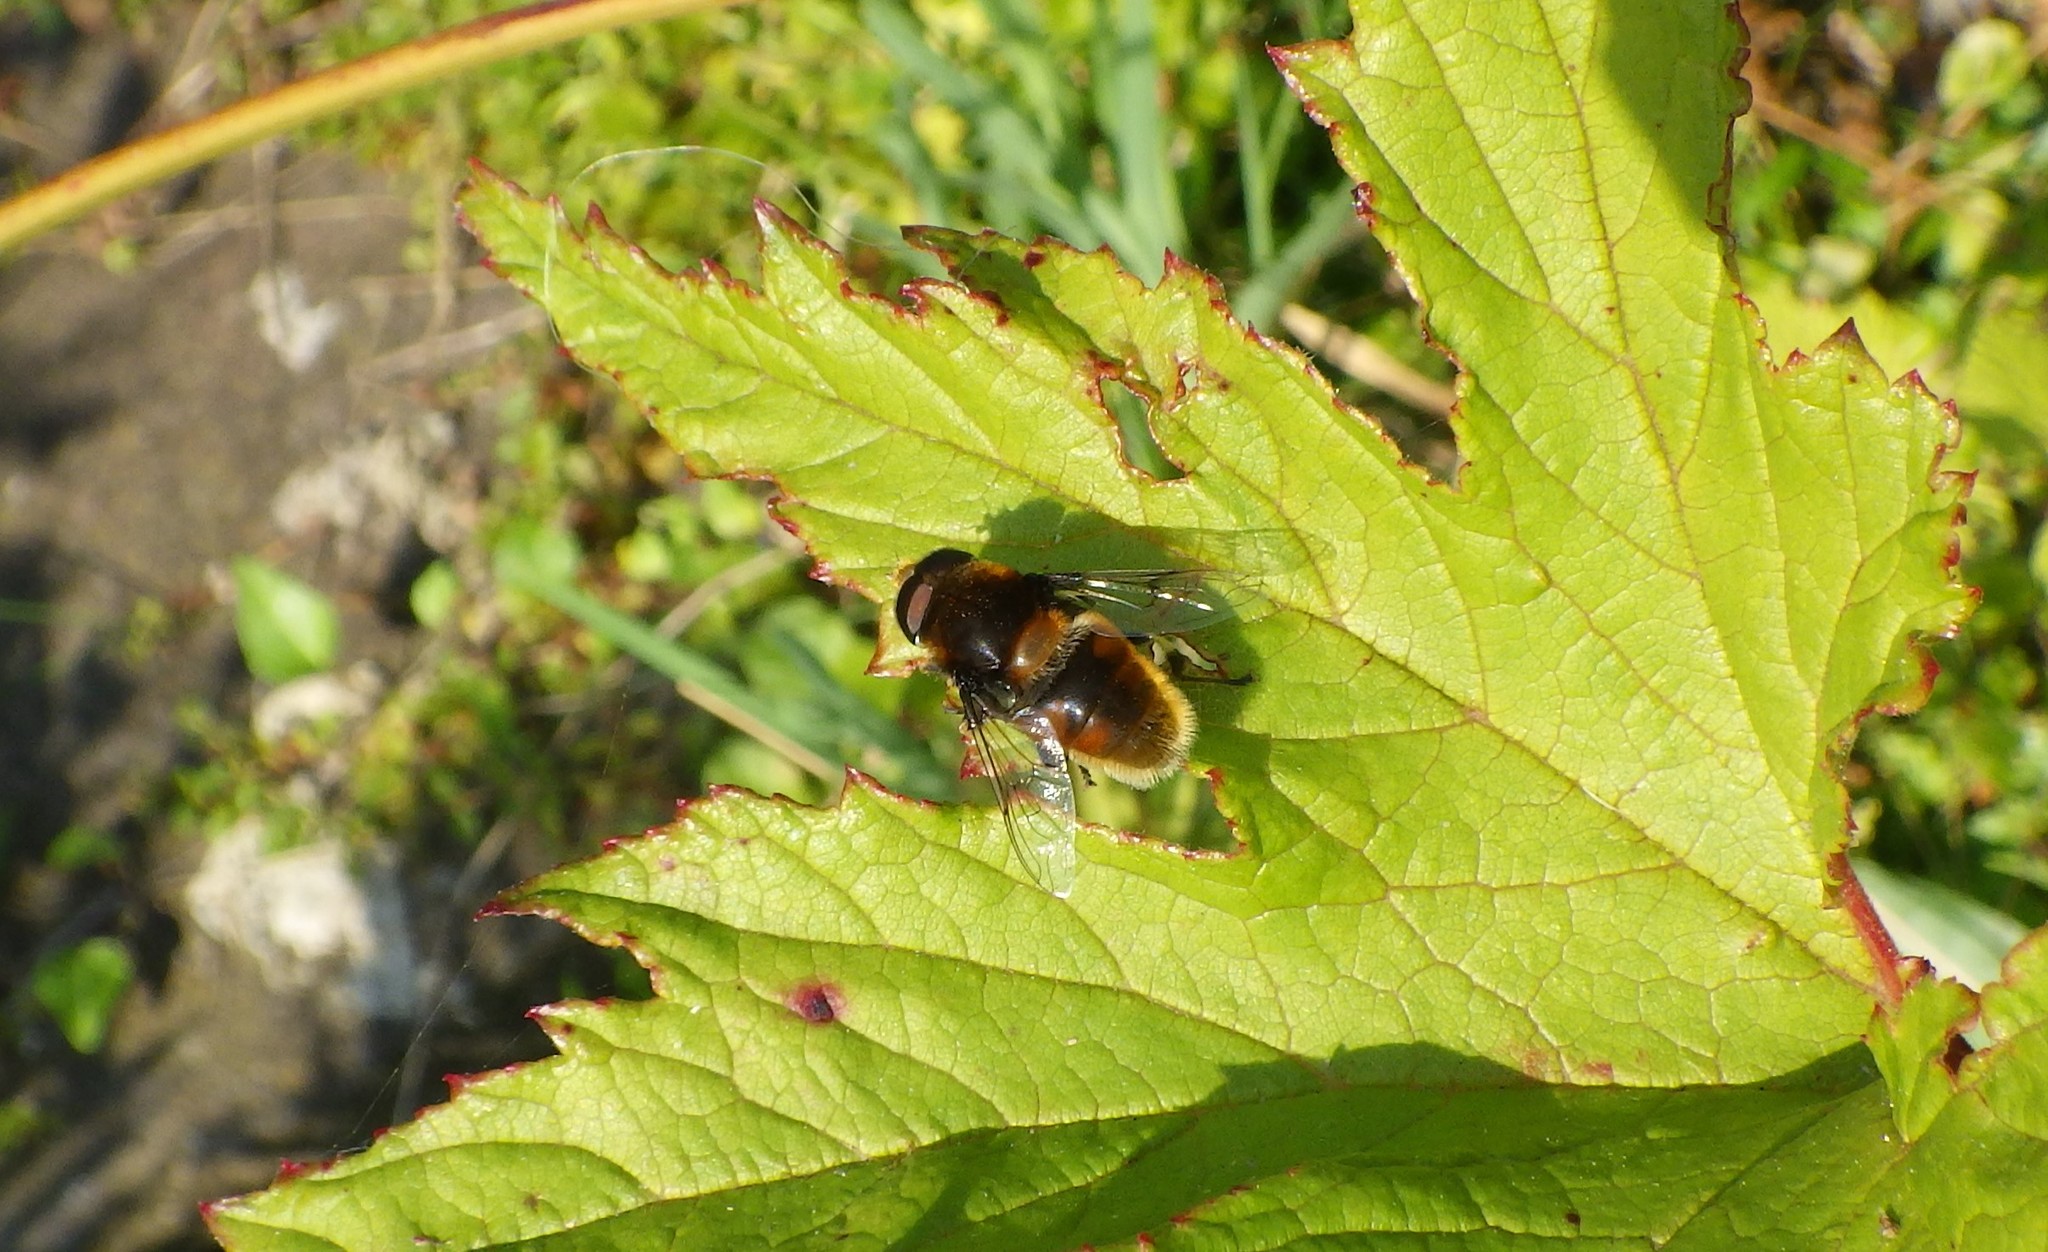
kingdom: Animalia
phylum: Arthropoda
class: Insecta
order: Diptera
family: Syrphidae
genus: Eristalis
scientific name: Eristalis intricaria
